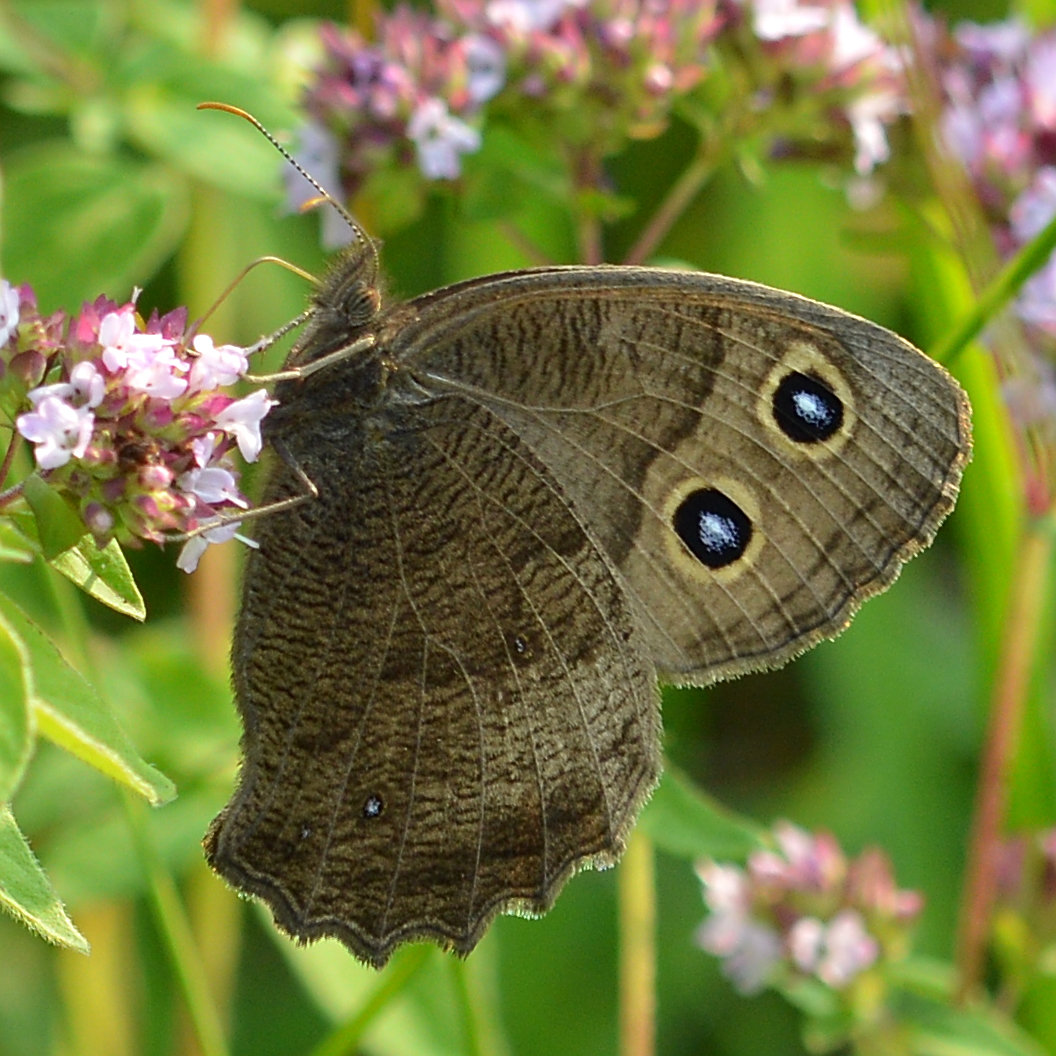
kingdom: Animalia
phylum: Arthropoda
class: Insecta
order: Lepidoptera
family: Nymphalidae
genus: Cercyonis
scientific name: Cercyonis pegala
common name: Common wood-nymph
